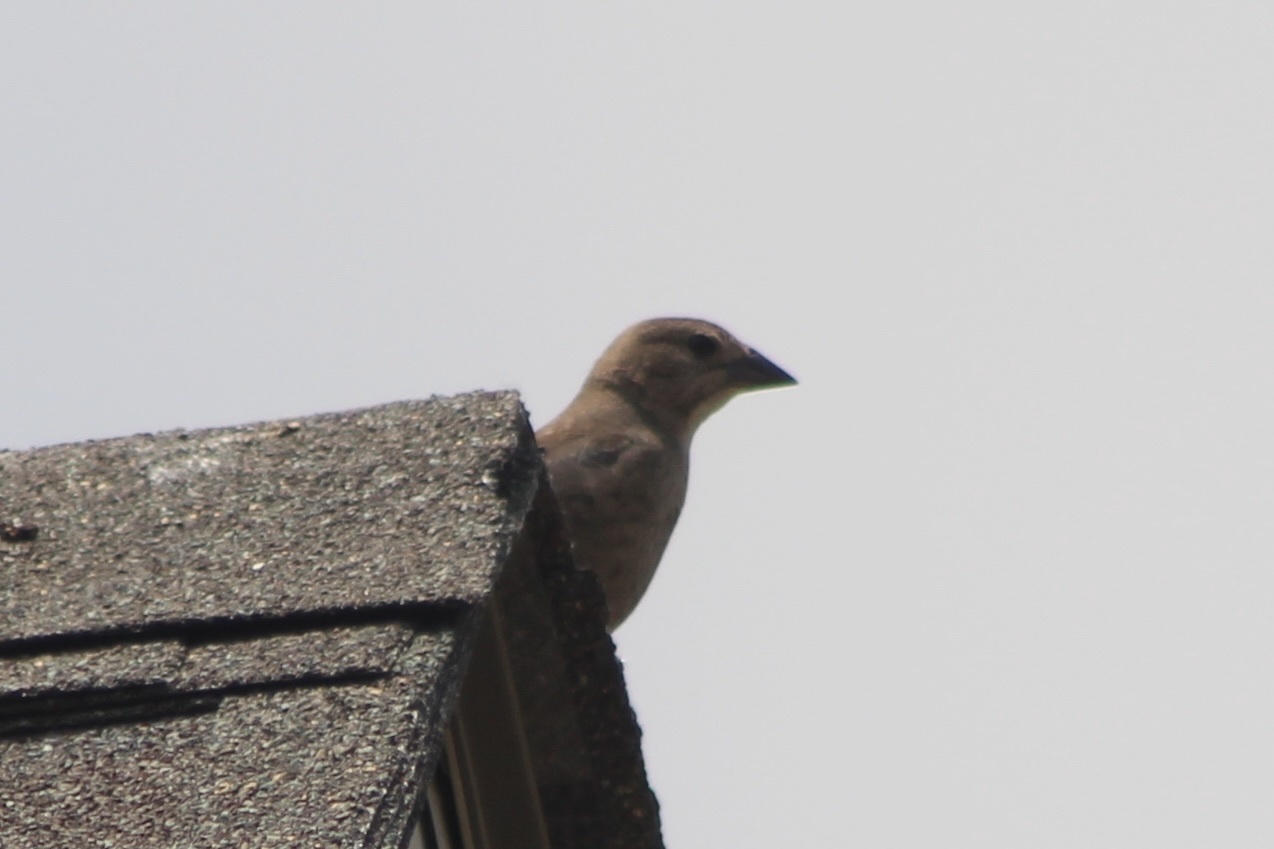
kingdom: Animalia
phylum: Chordata
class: Aves
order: Passeriformes
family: Icteridae
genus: Molothrus
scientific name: Molothrus ater
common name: Brown-headed cowbird
